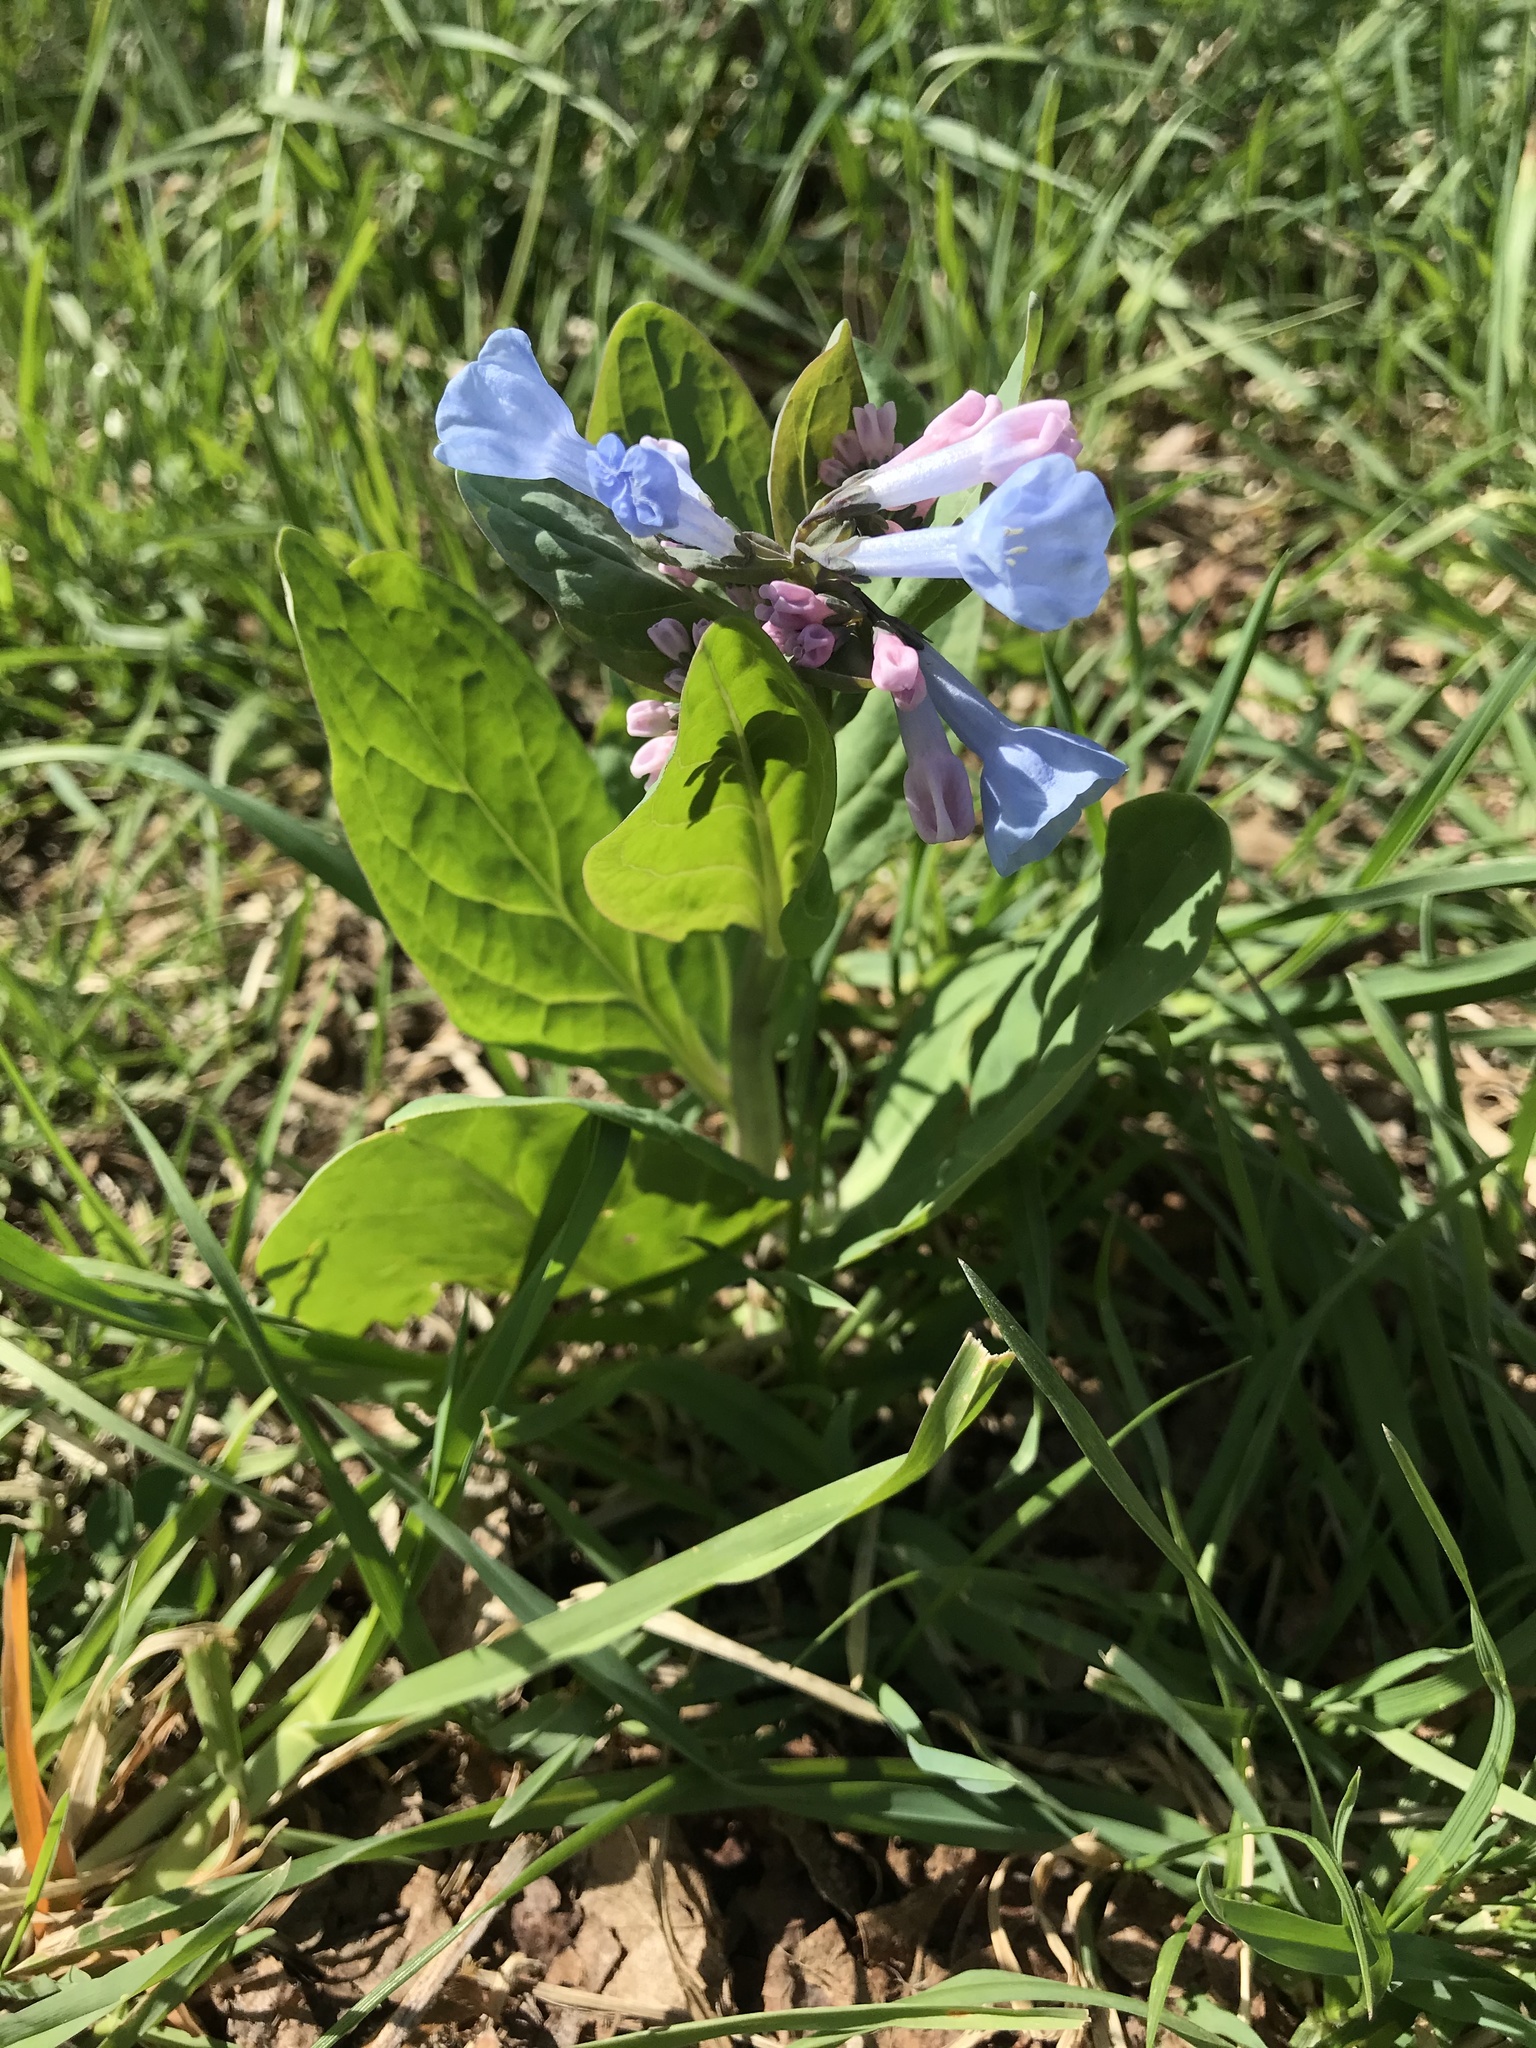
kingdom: Plantae
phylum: Tracheophyta
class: Magnoliopsida
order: Boraginales
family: Boraginaceae
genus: Mertensia
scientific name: Mertensia virginica
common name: Virginia bluebells
